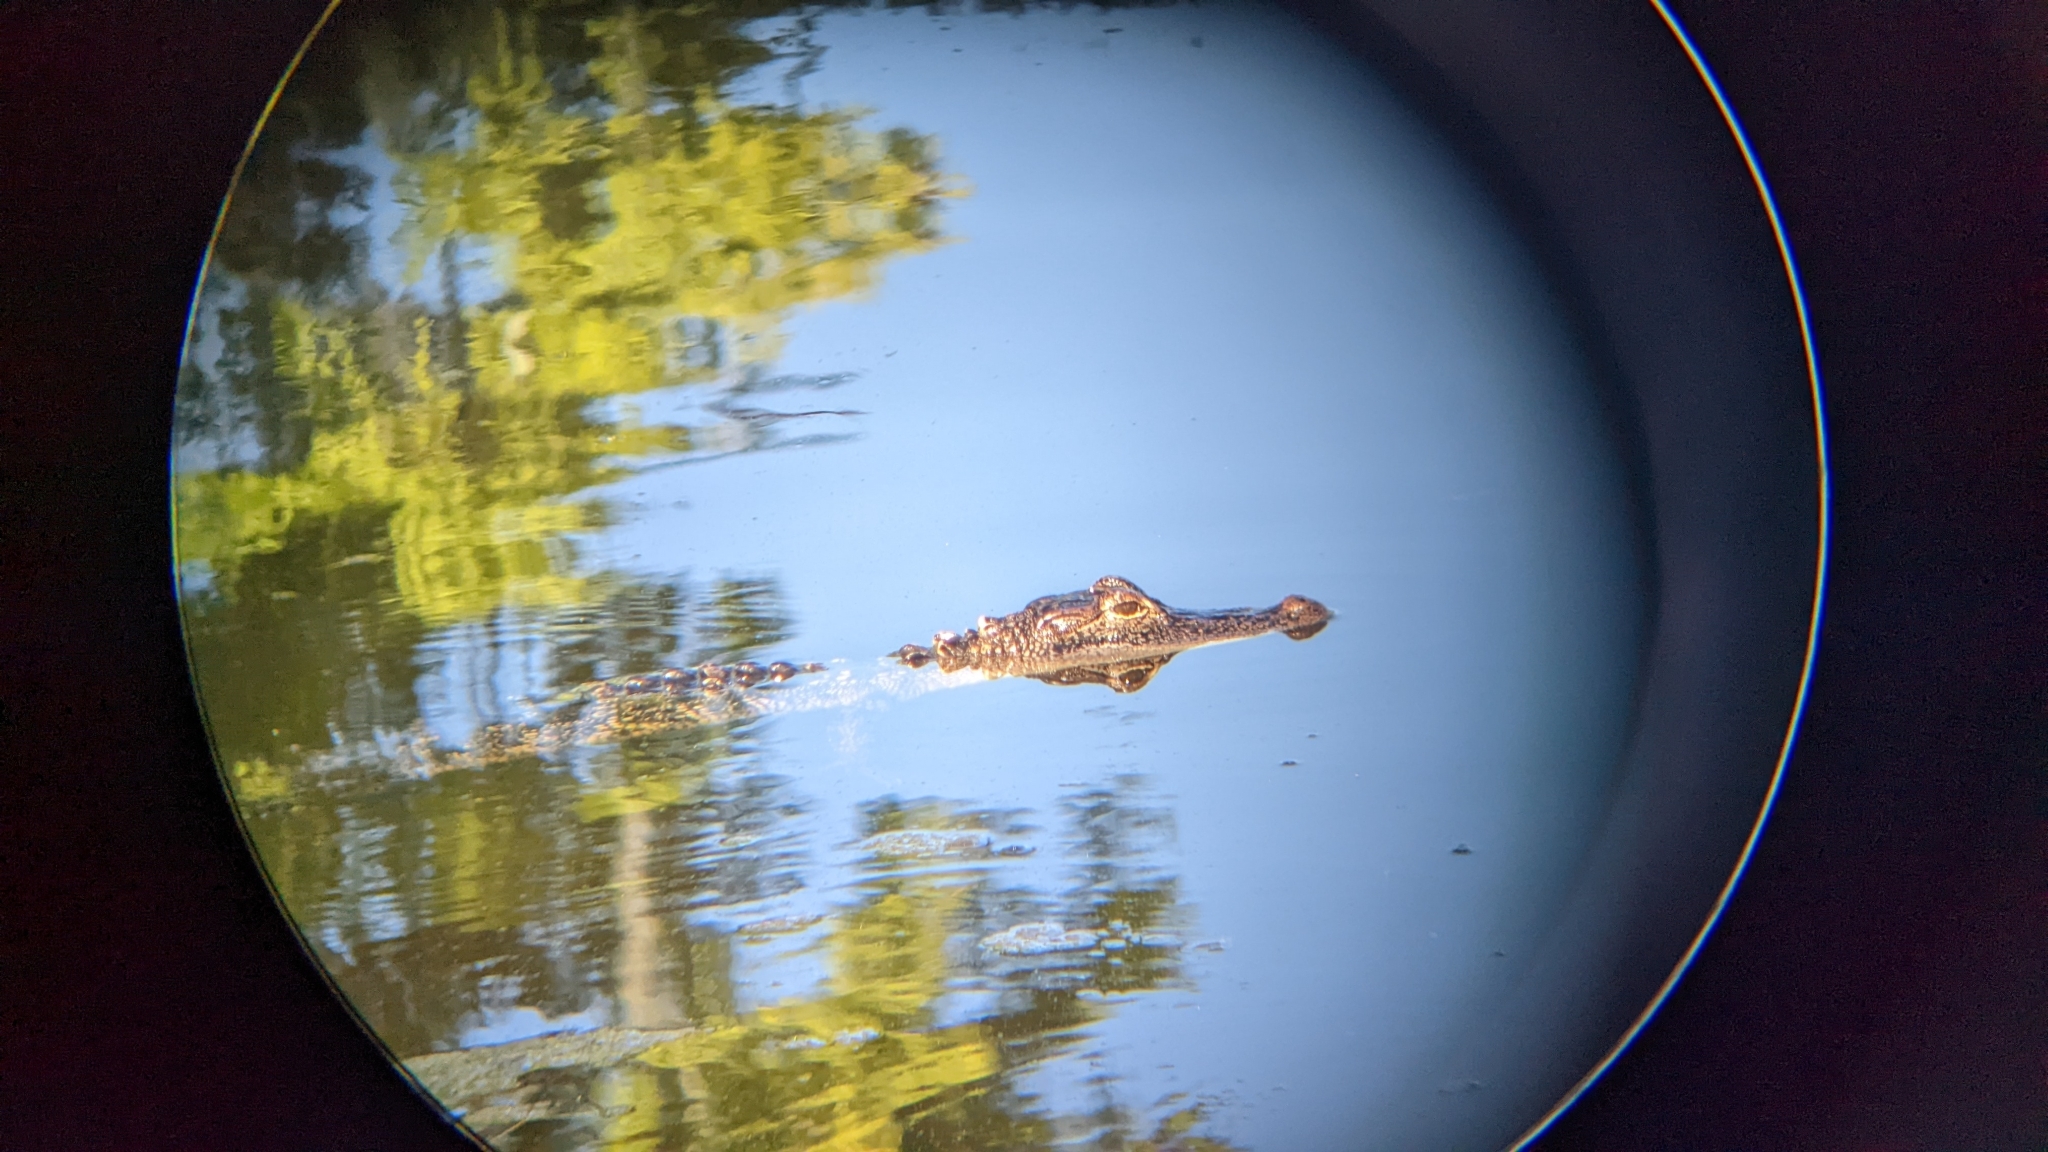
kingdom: Animalia
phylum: Chordata
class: Crocodylia
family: Alligatoridae
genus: Alligator
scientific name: Alligator mississippiensis
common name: American alligator
